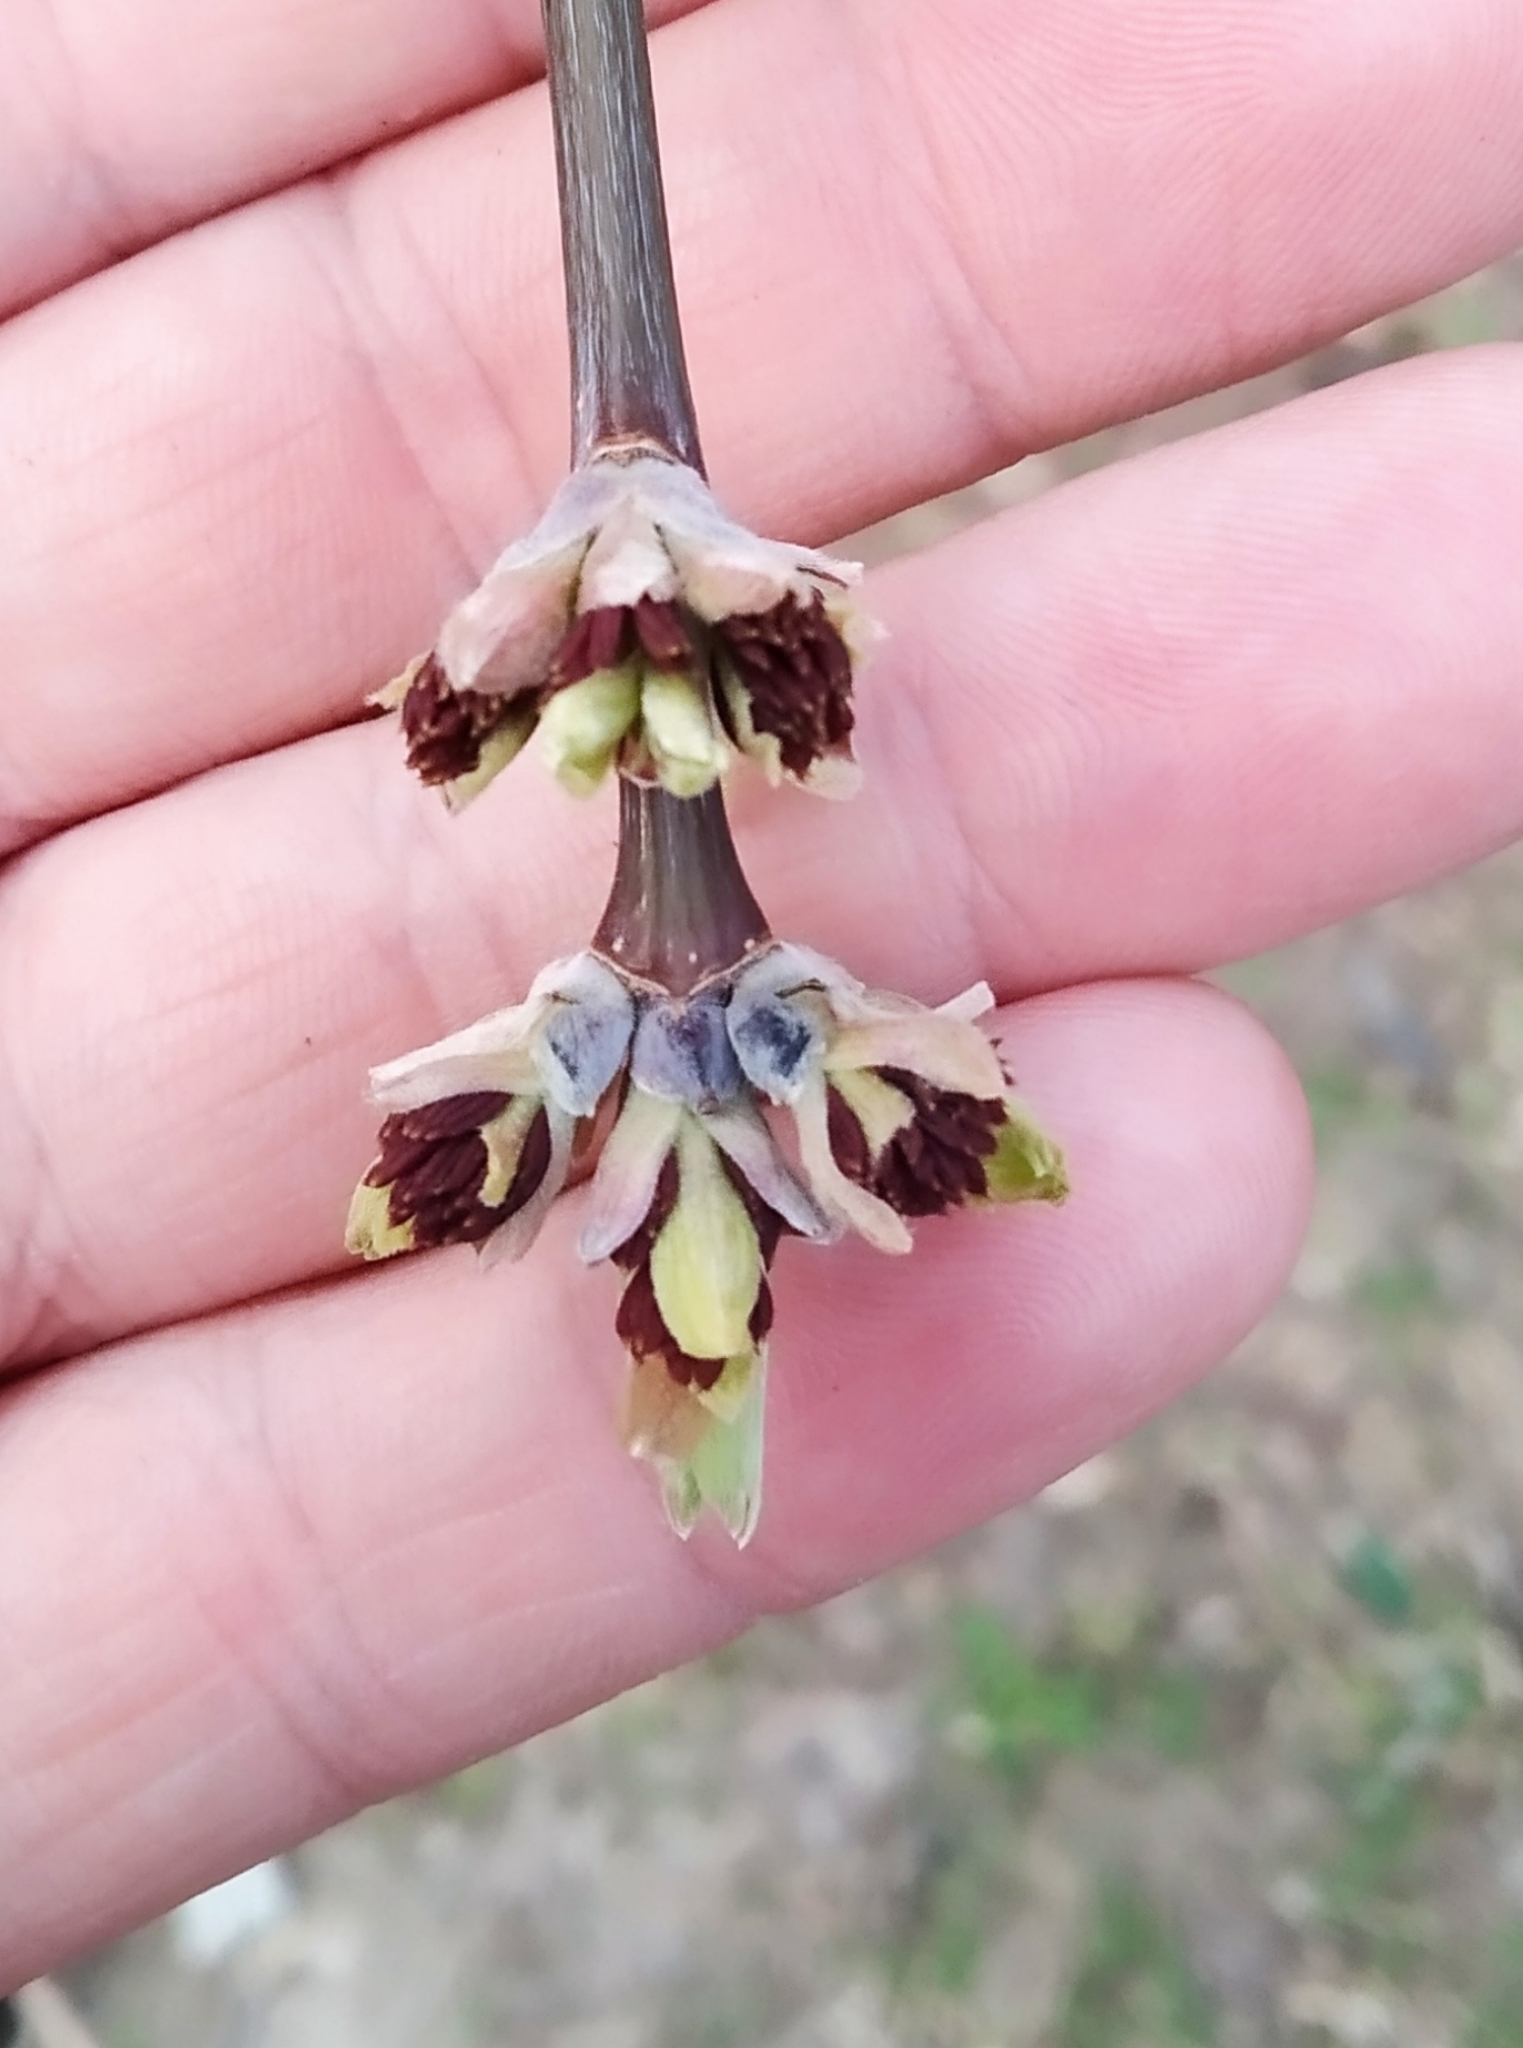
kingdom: Plantae
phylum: Tracheophyta
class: Magnoliopsida
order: Sapindales
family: Sapindaceae
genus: Acer
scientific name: Acer negundo
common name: Ashleaf maple
